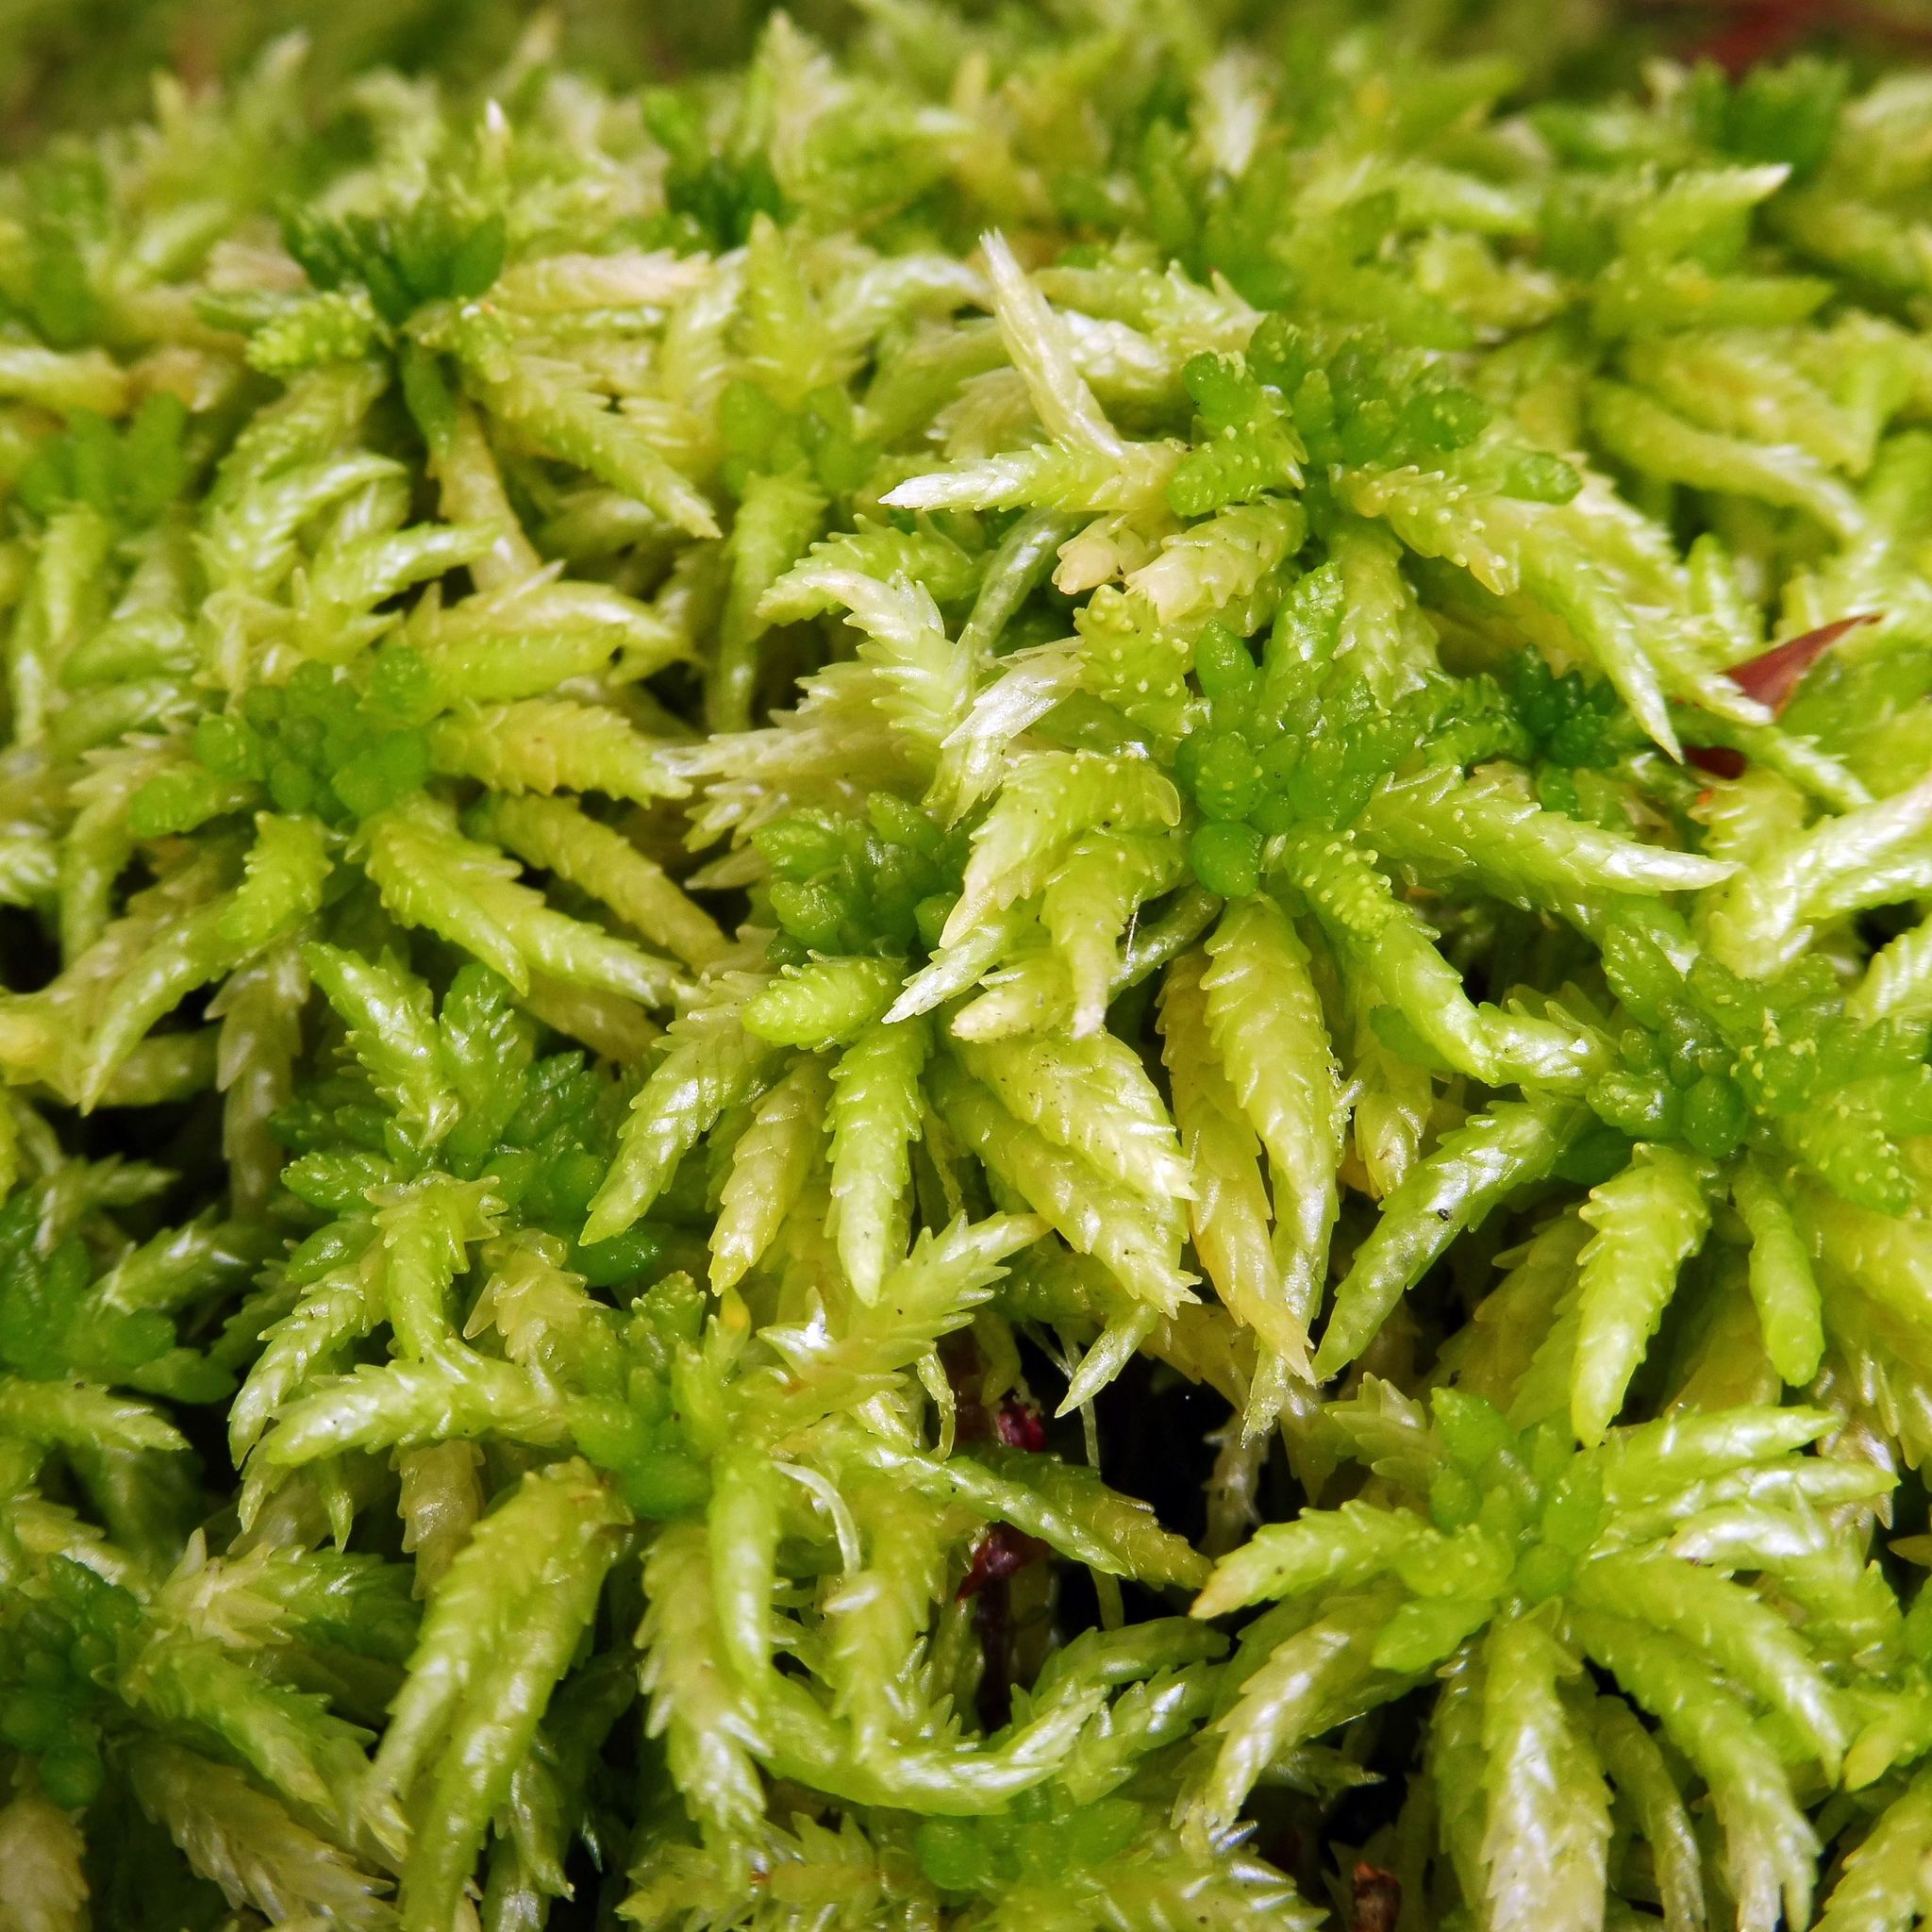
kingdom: Plantae
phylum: Bryophyta
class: Sphagnopsida
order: Sphagnales
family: Sphagnaceae
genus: Sphagnum
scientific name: Sphagnum palustre
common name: Blunt-leaved bog-moss
